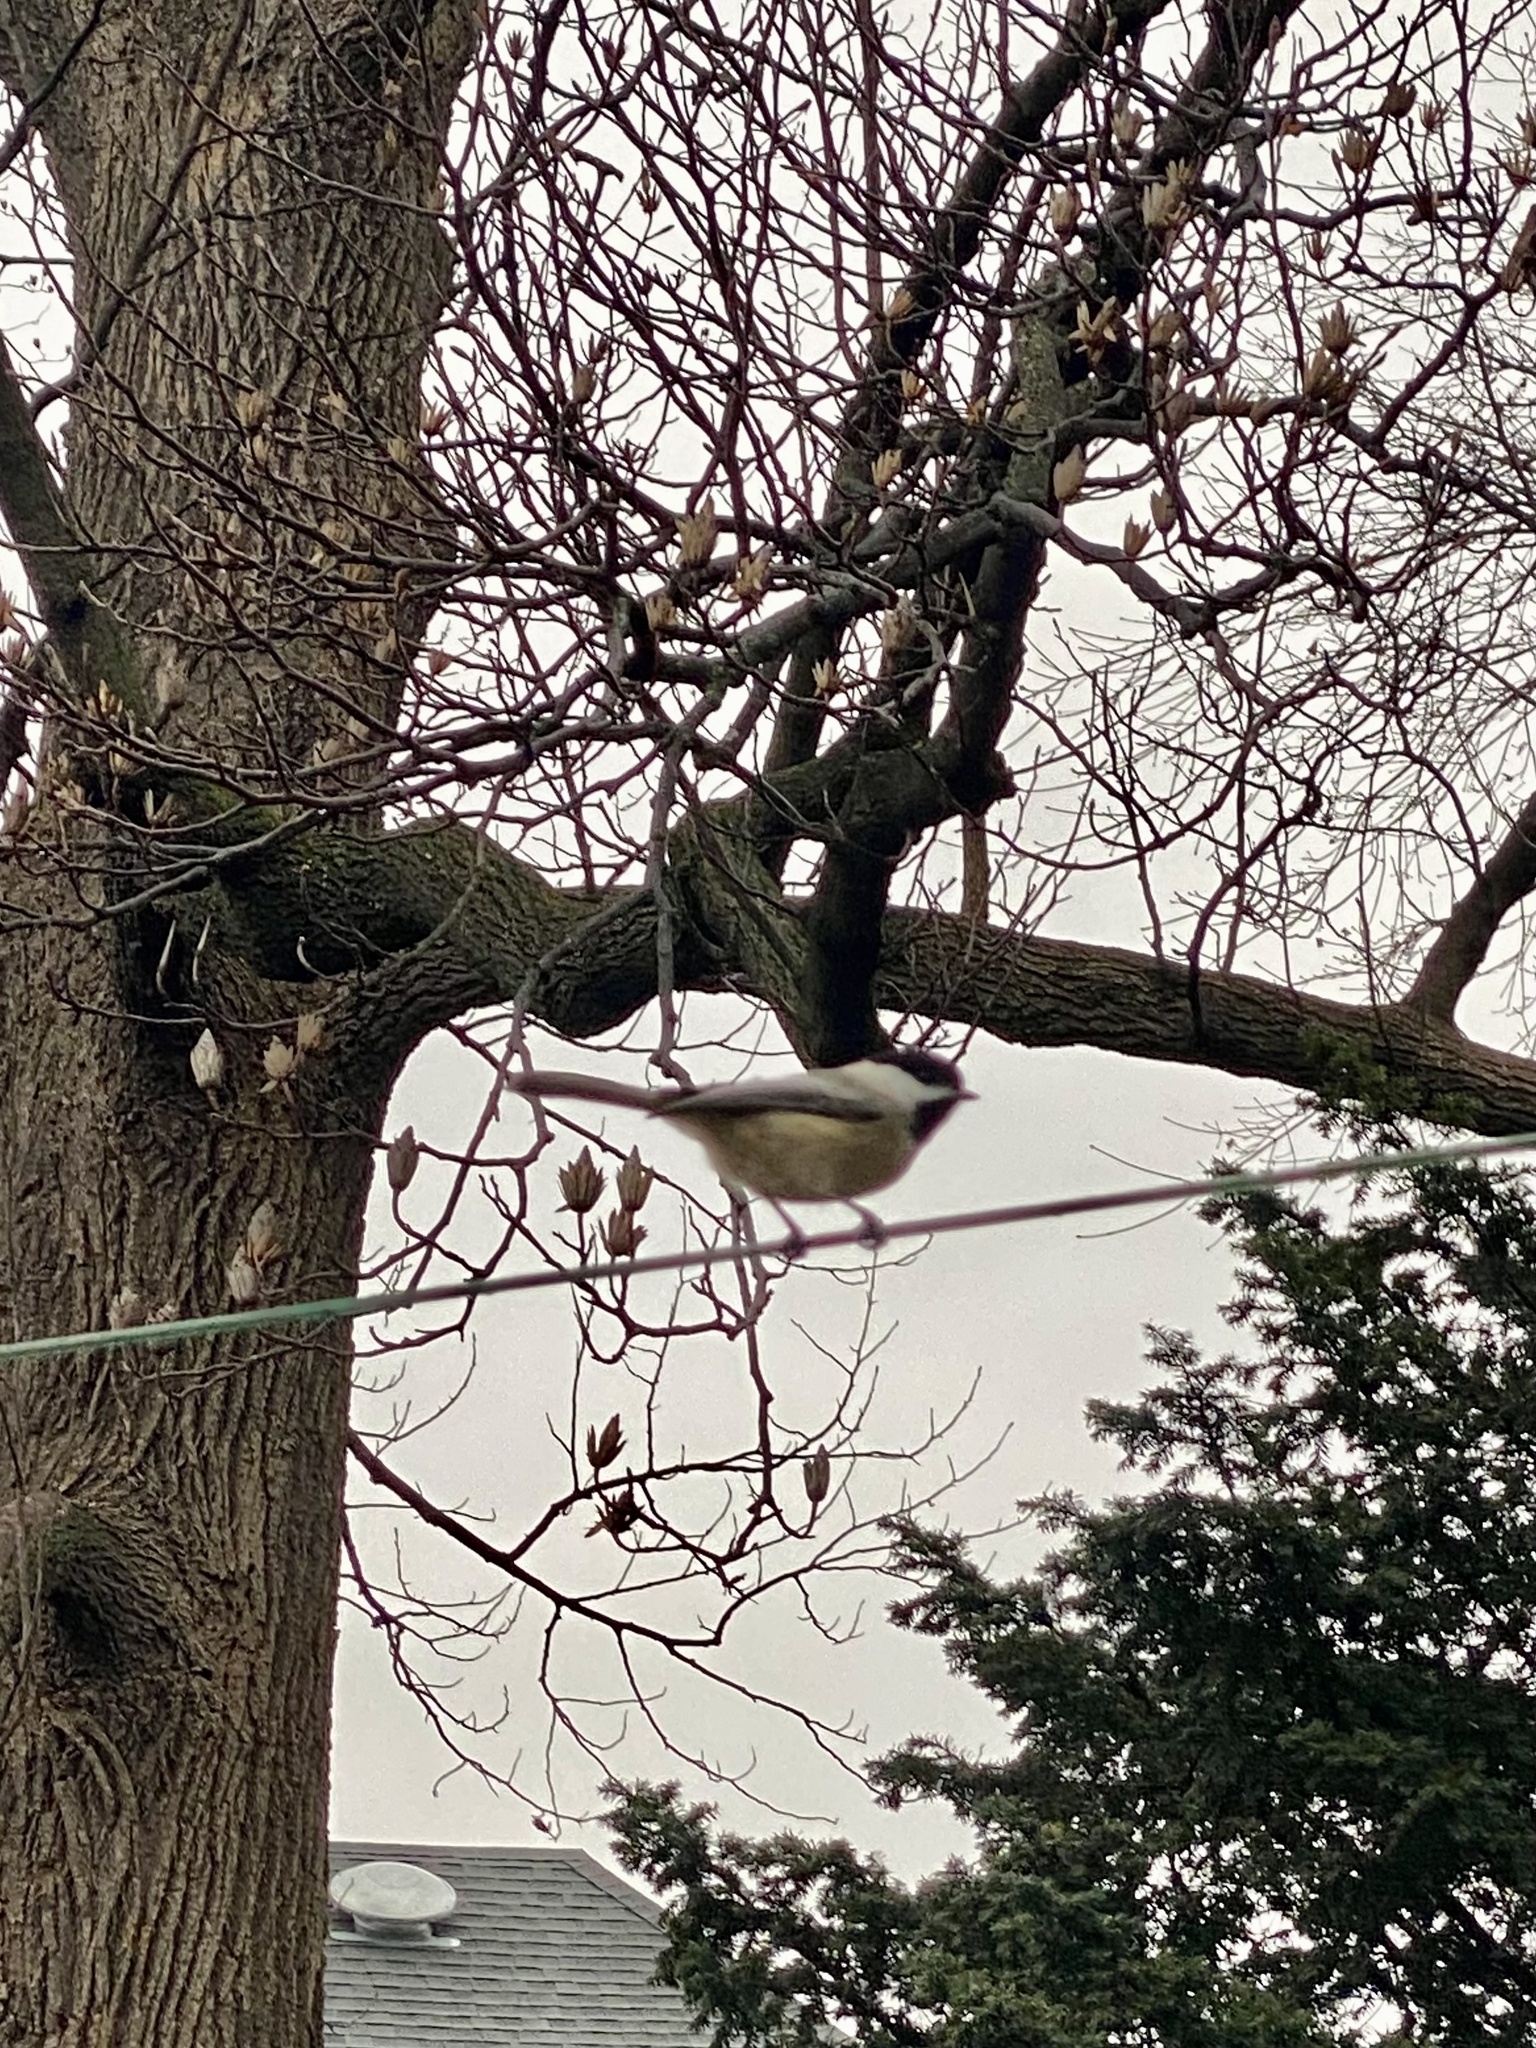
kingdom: Animalia
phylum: Chordata
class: Aves
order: Passeriformes
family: Paridae
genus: Poecile
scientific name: Poecile atricapillus
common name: Black-capped chickadee
